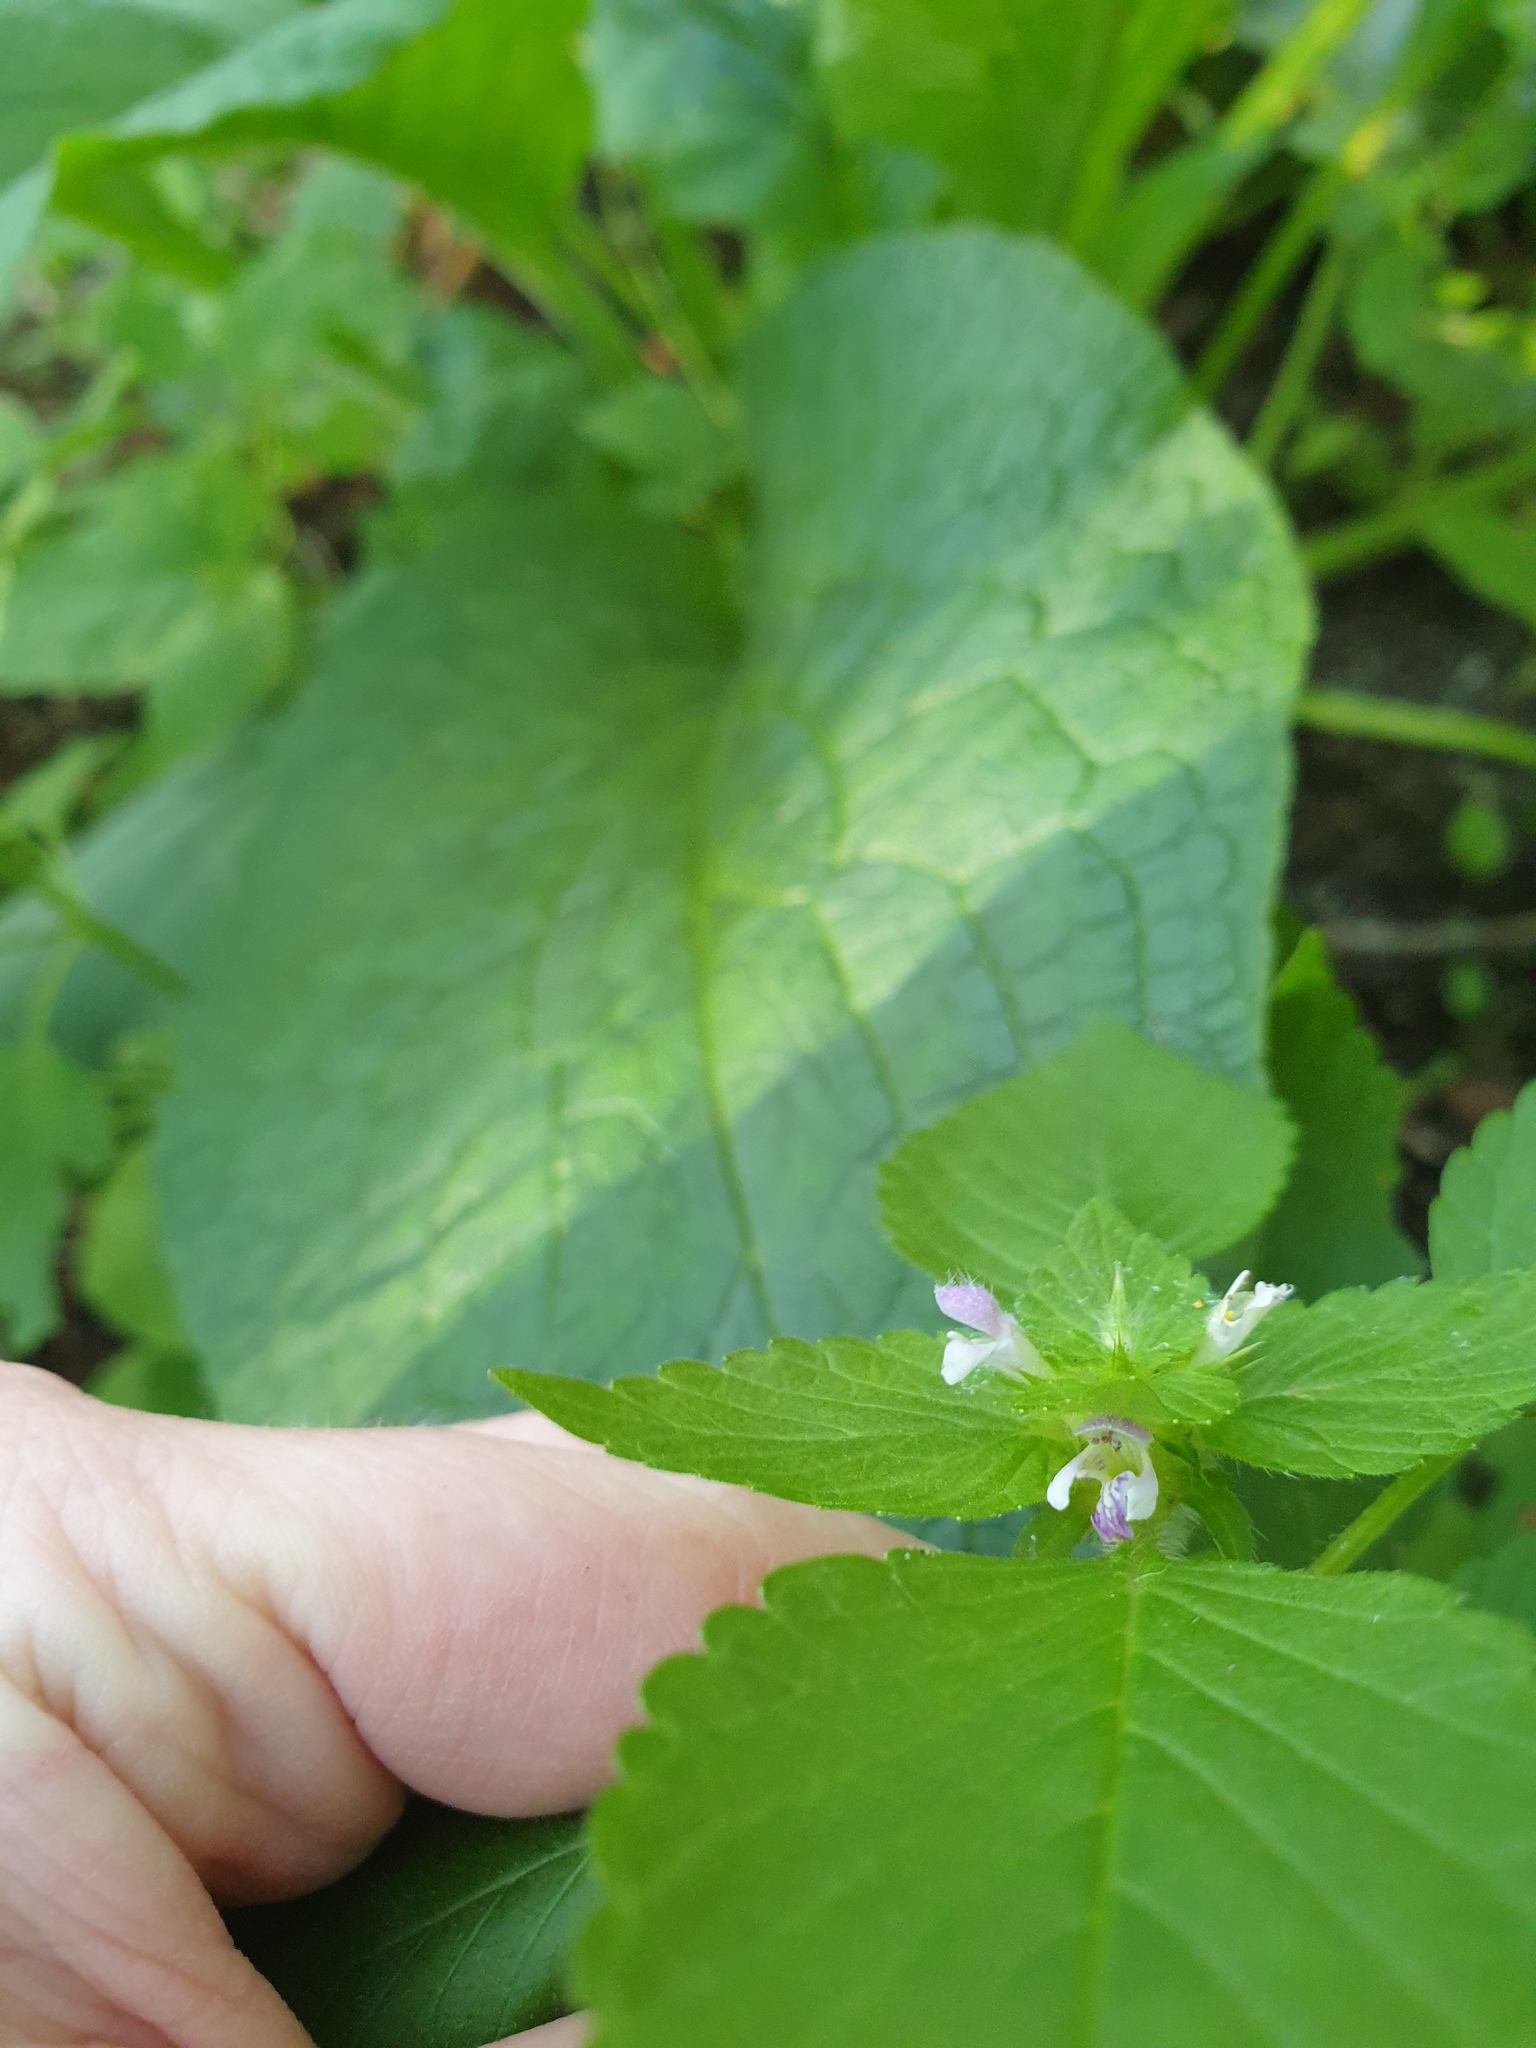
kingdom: Plantae
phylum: Tracheophyta
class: Magnoliopsida
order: Lamiales
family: Lamiaceae
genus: Galeopsis
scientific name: Galeopsis tetrahit
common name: Common hemp-nettle
